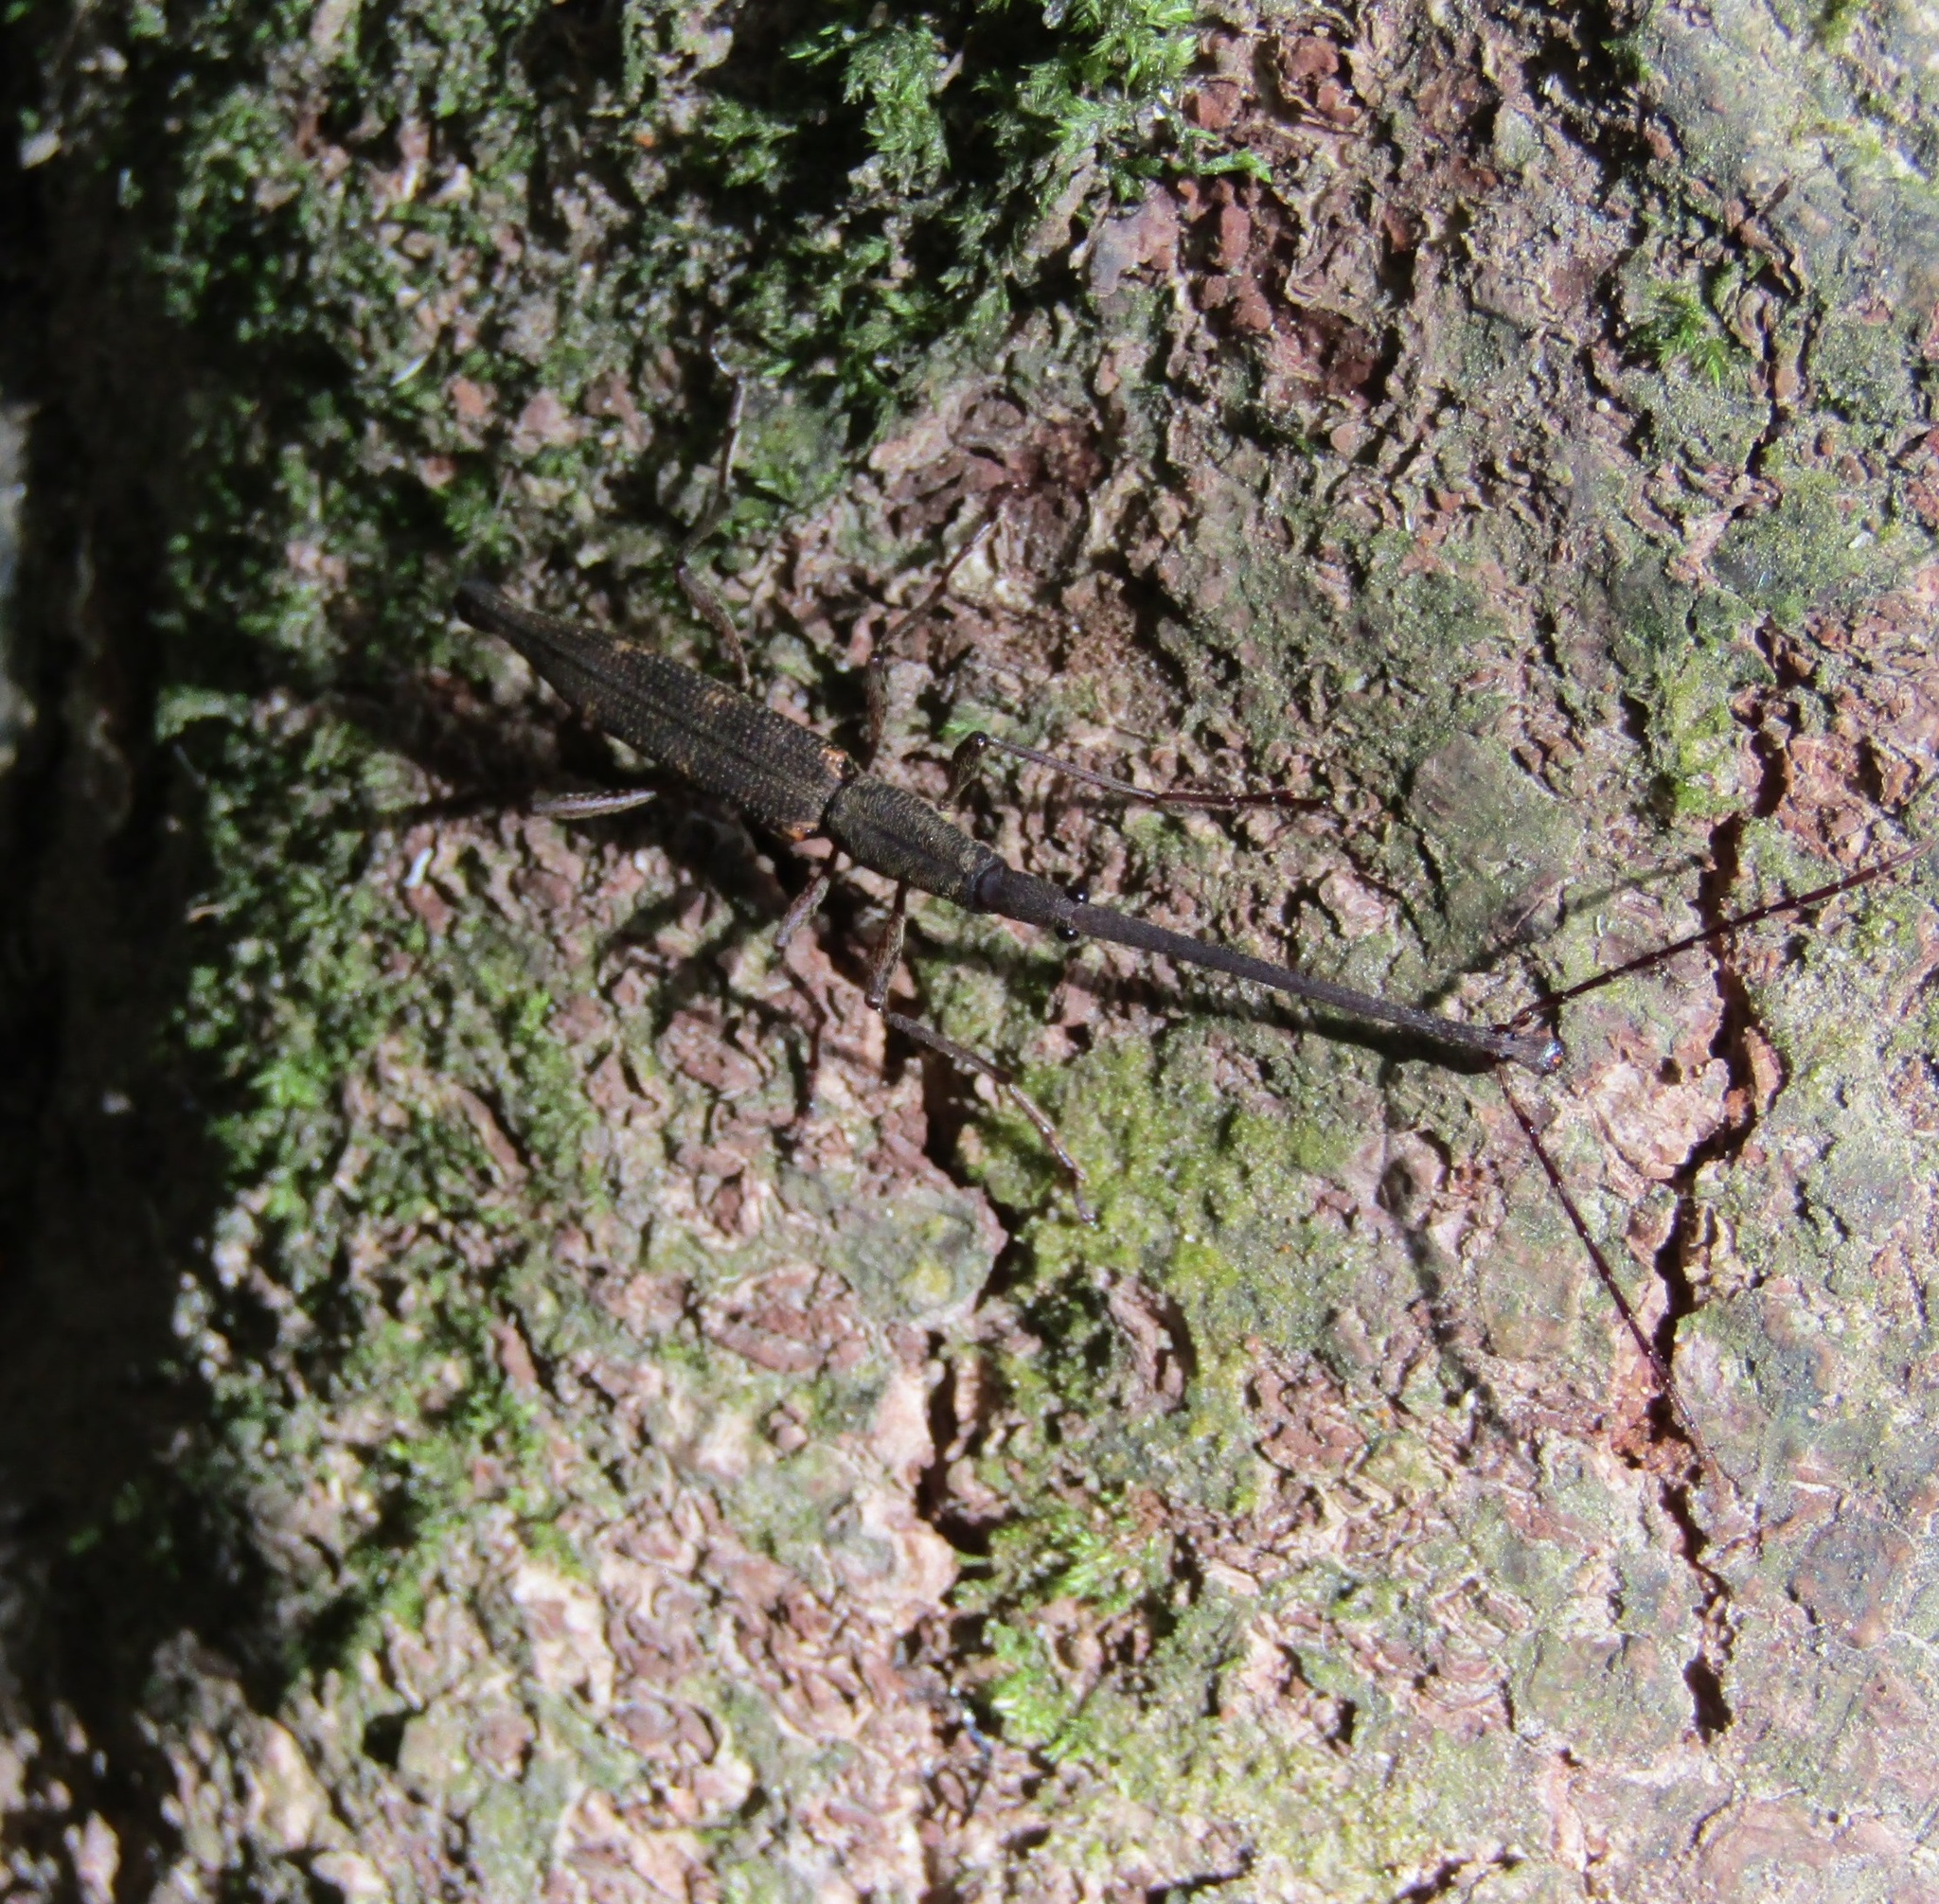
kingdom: Animalia
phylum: Arthropoda
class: Insecta
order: Coleoptera
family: Brentidae
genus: Lasiorhynchus
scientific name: Lasiorhynchus barbicornis
